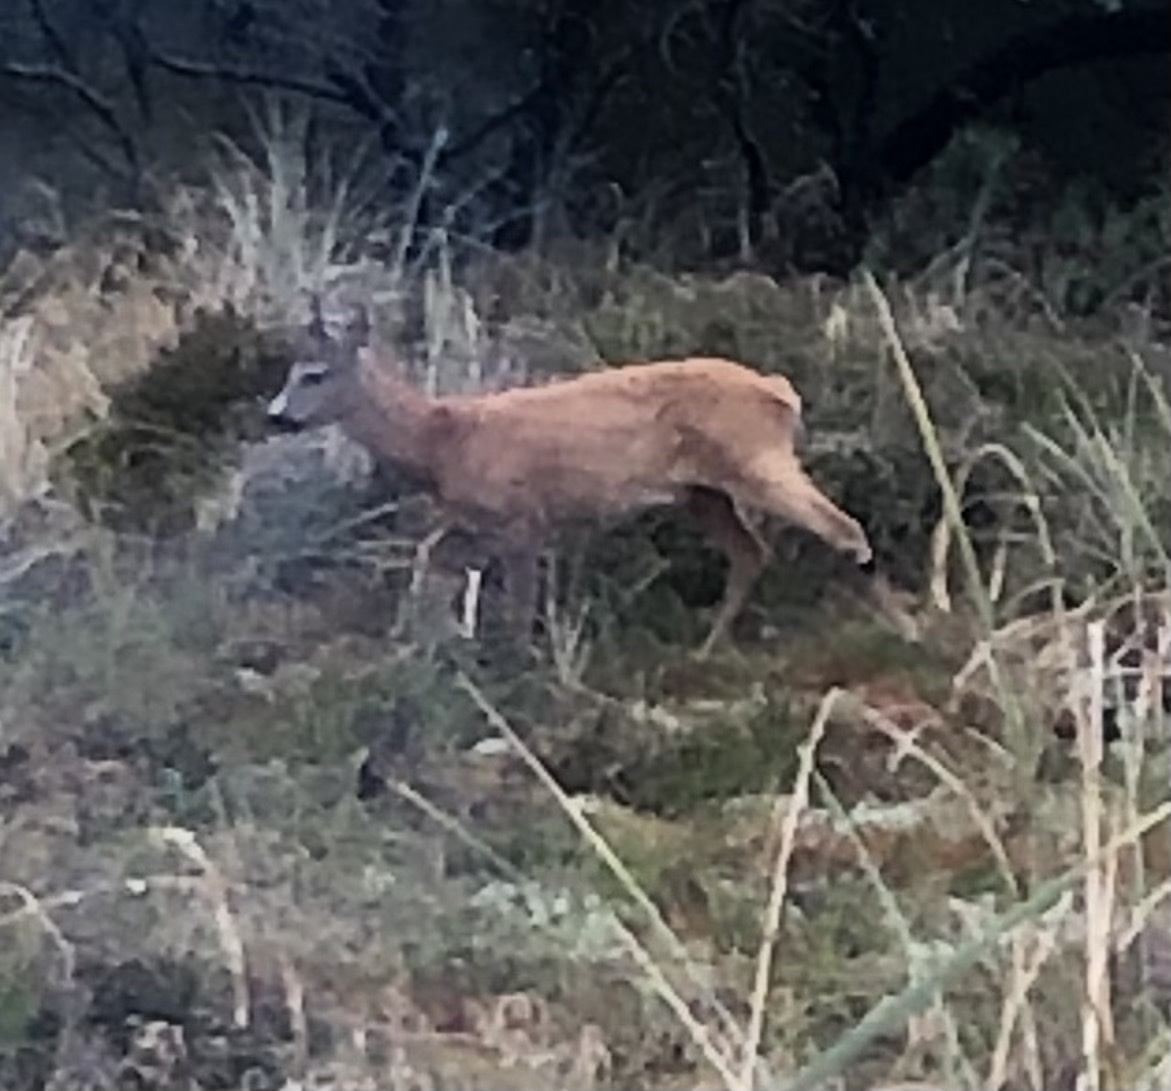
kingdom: Animalia
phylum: Chordata
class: Mammalia
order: Artiodactyla
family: Cervidae
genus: Capreolus
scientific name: Capreolus capreolus
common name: Western roe deer
